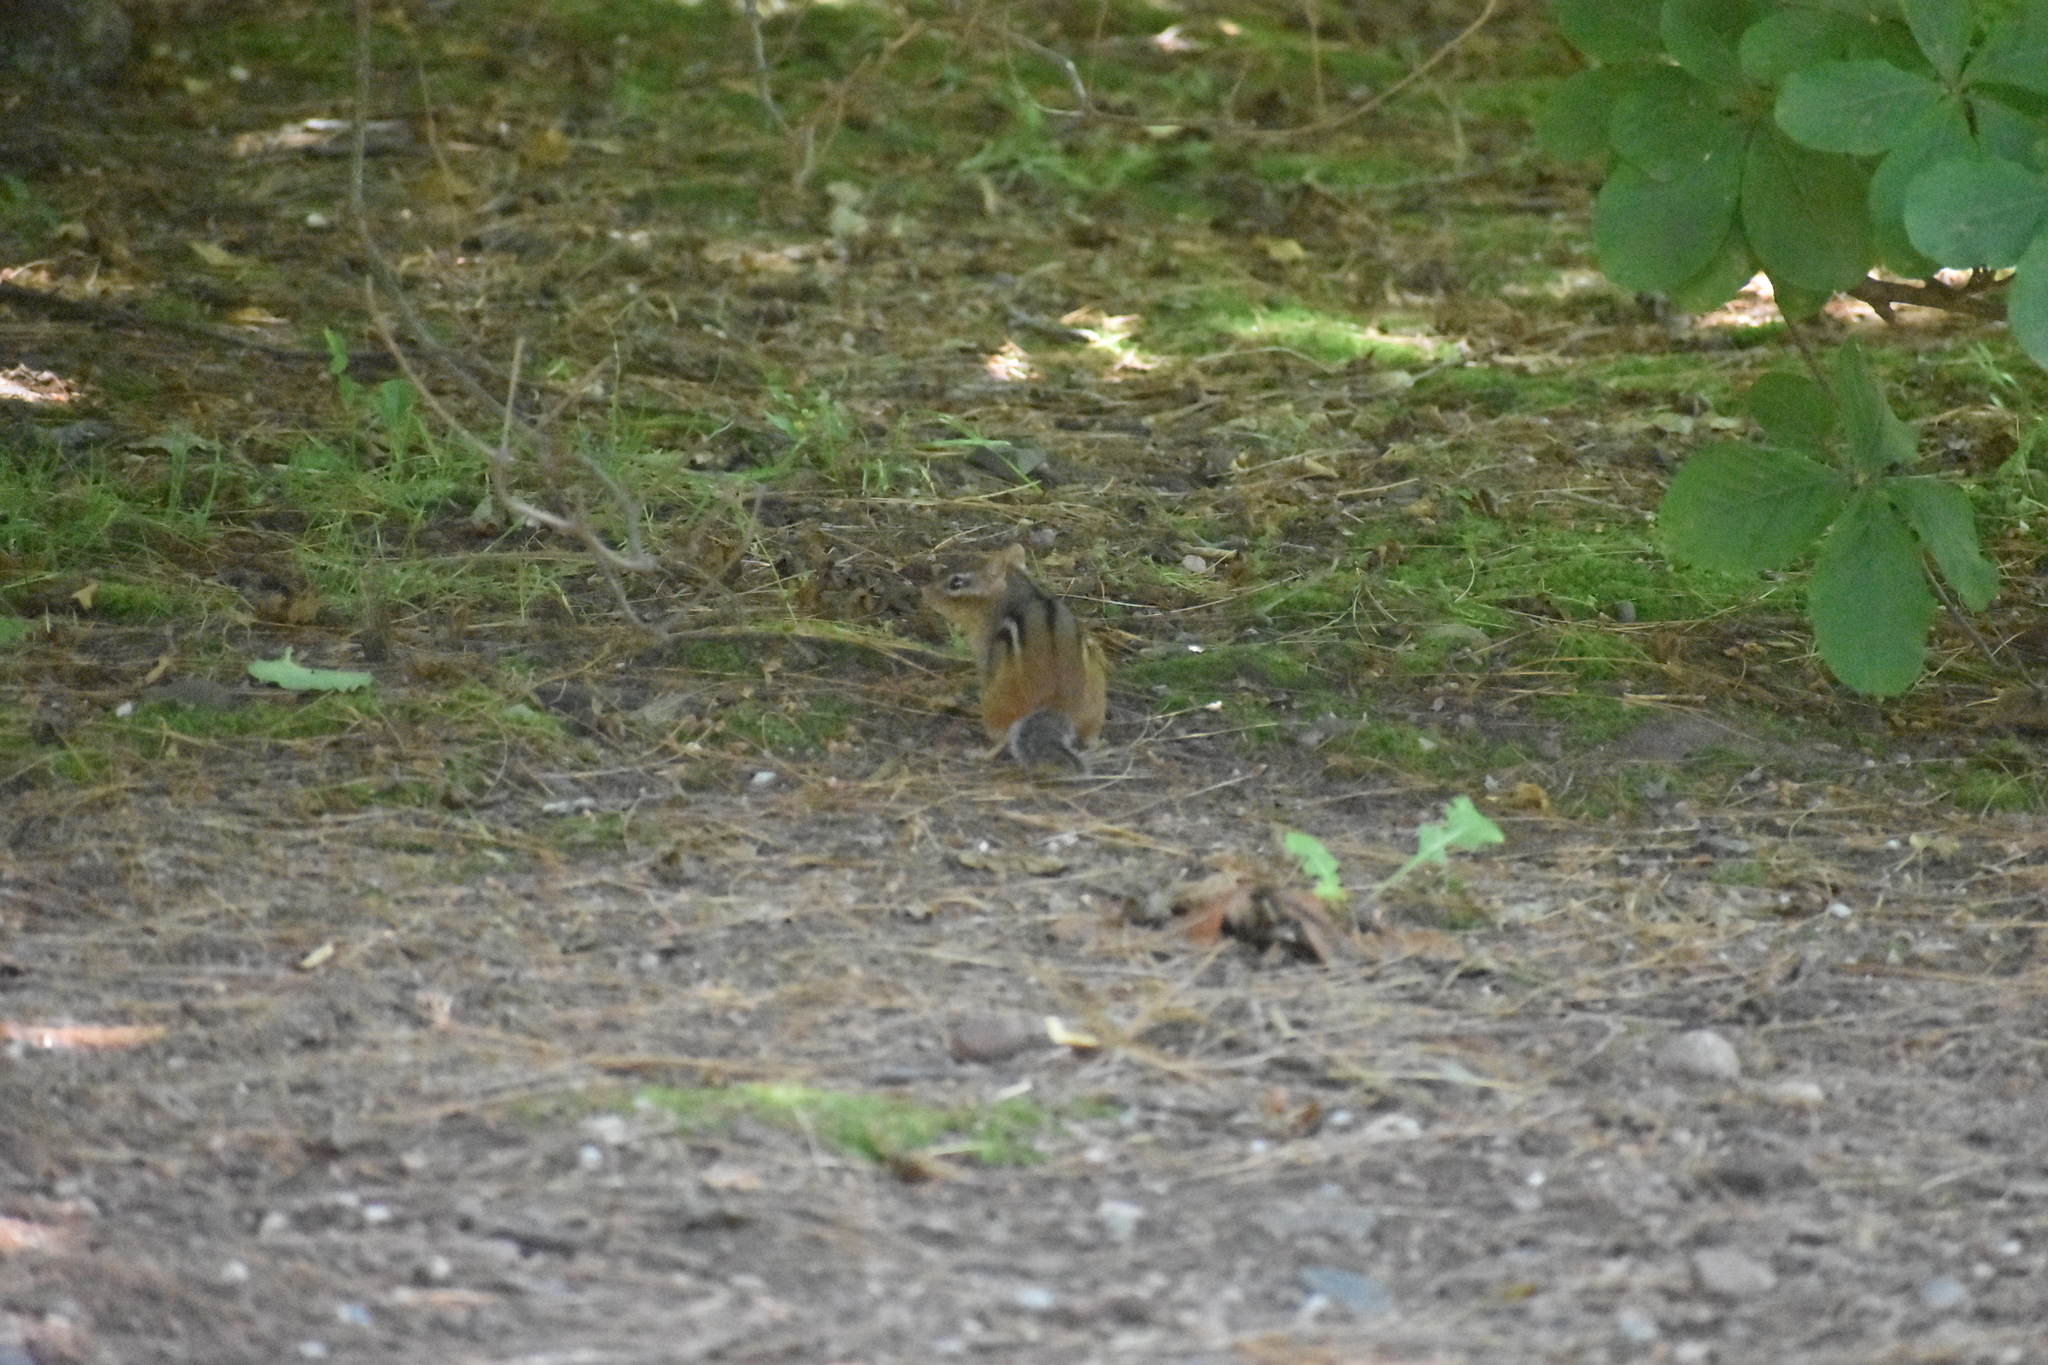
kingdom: Animalia
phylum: Chordata
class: Mammalia
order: Rodentia
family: Sciuridae
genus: Tamias
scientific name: Tamias striatus
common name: Eastern chipmunk
